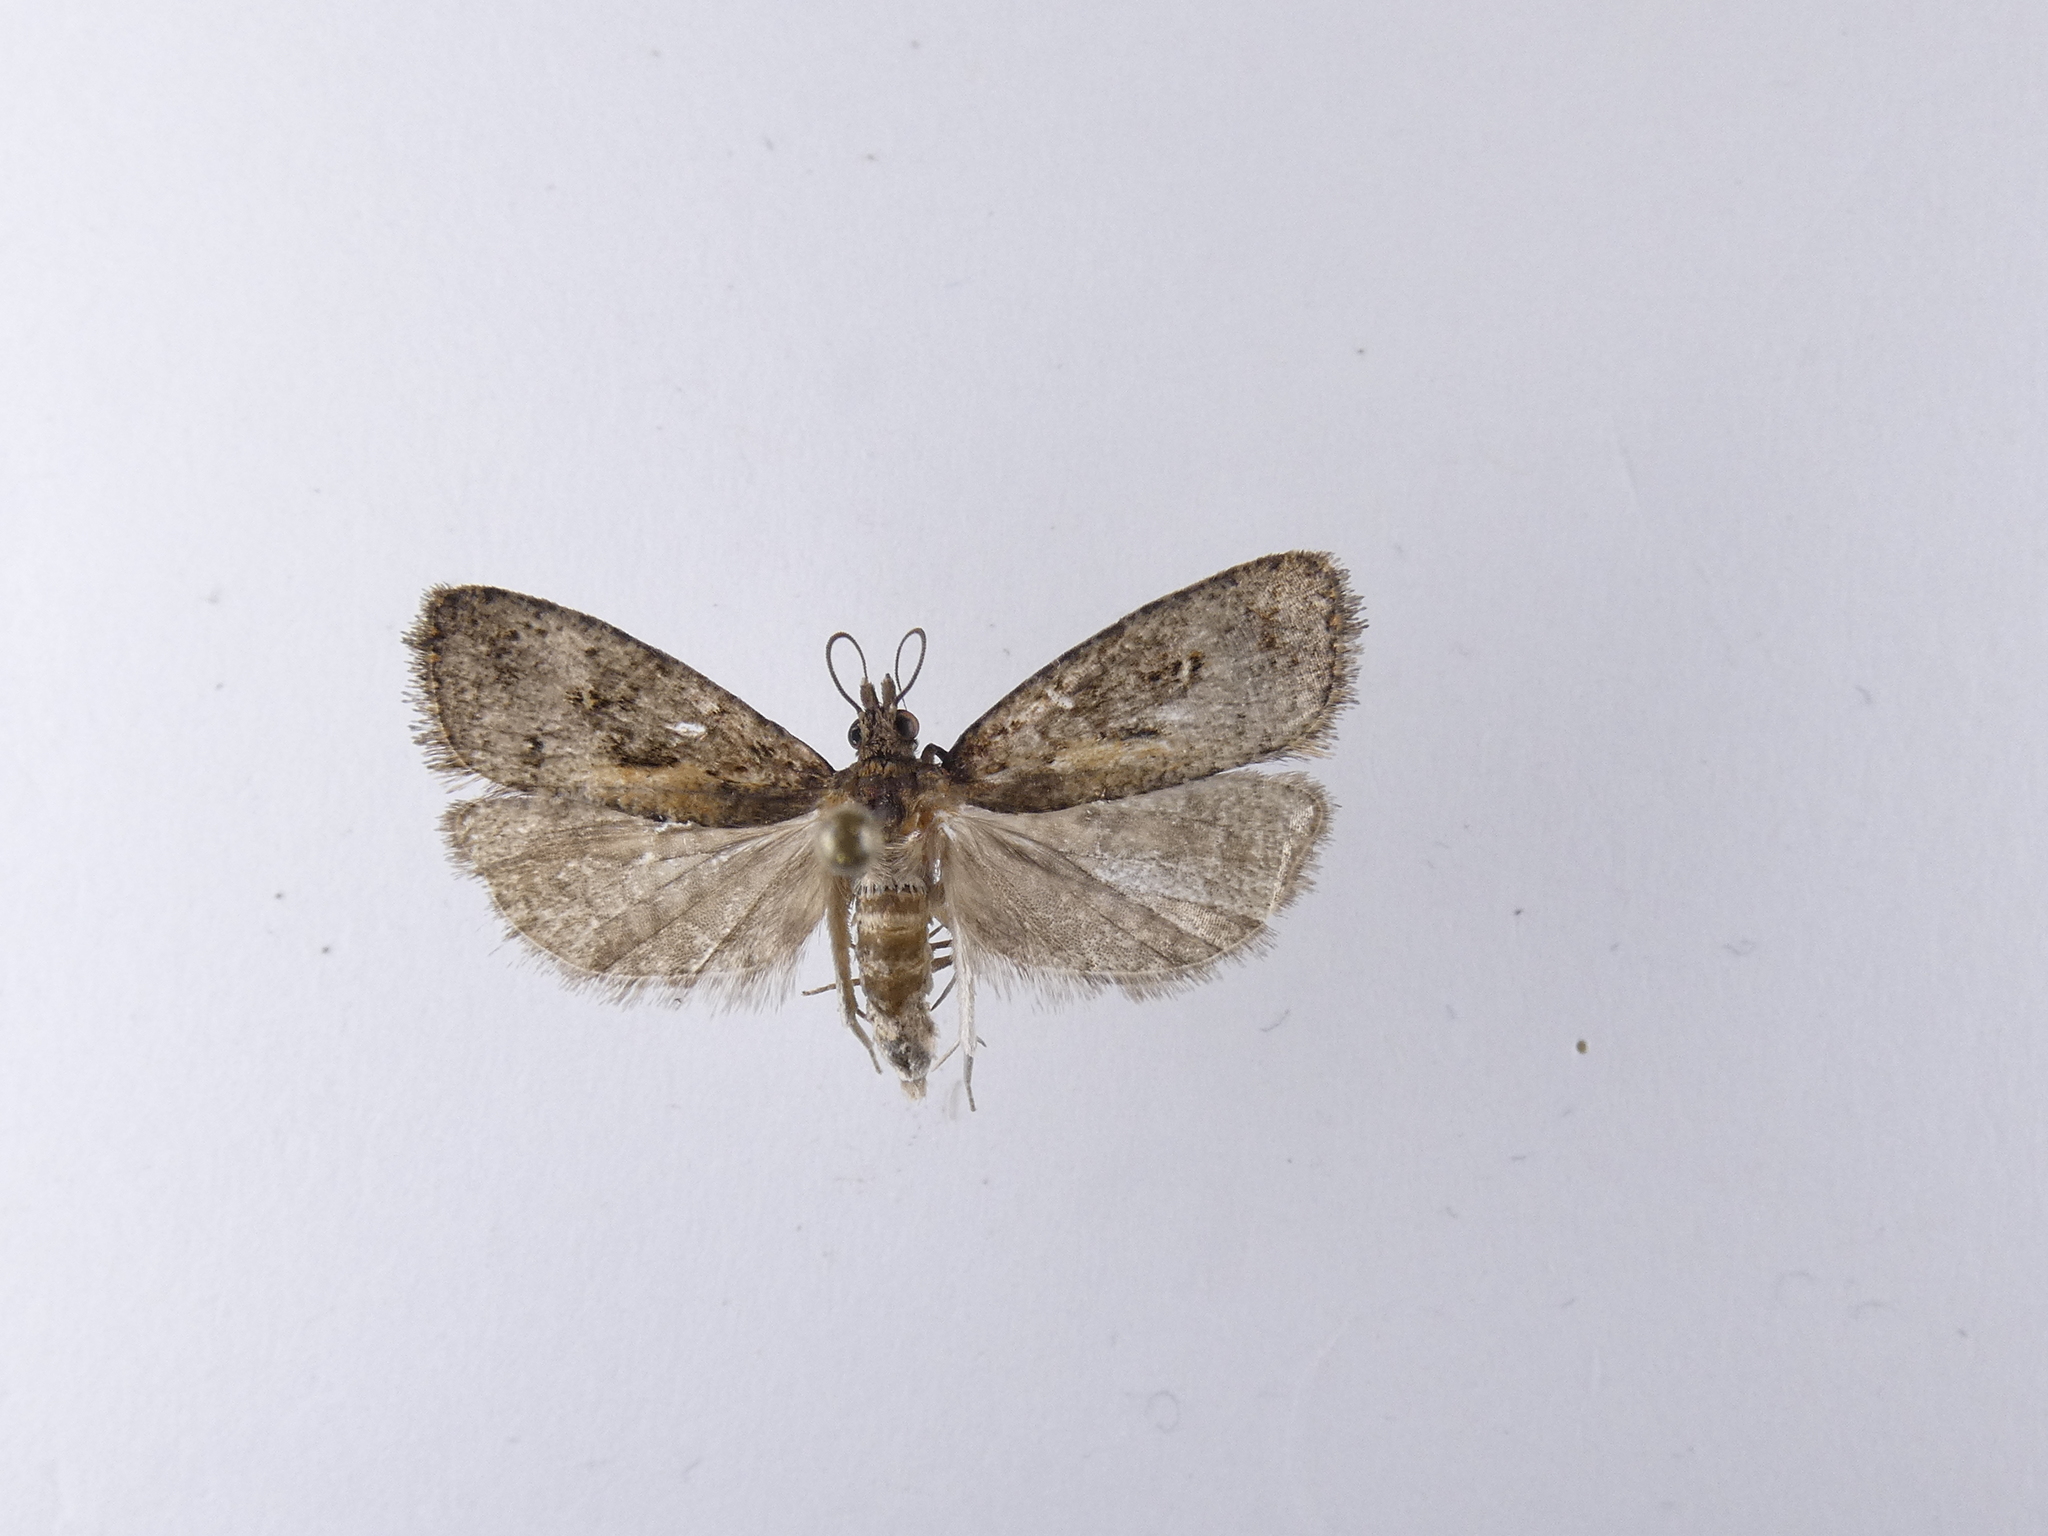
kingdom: Animalia
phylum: Arthropoda
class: Insecta
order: Lepidoptera
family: Tortricidae
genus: Cryptaspasma
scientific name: Cryptaspasma querula
